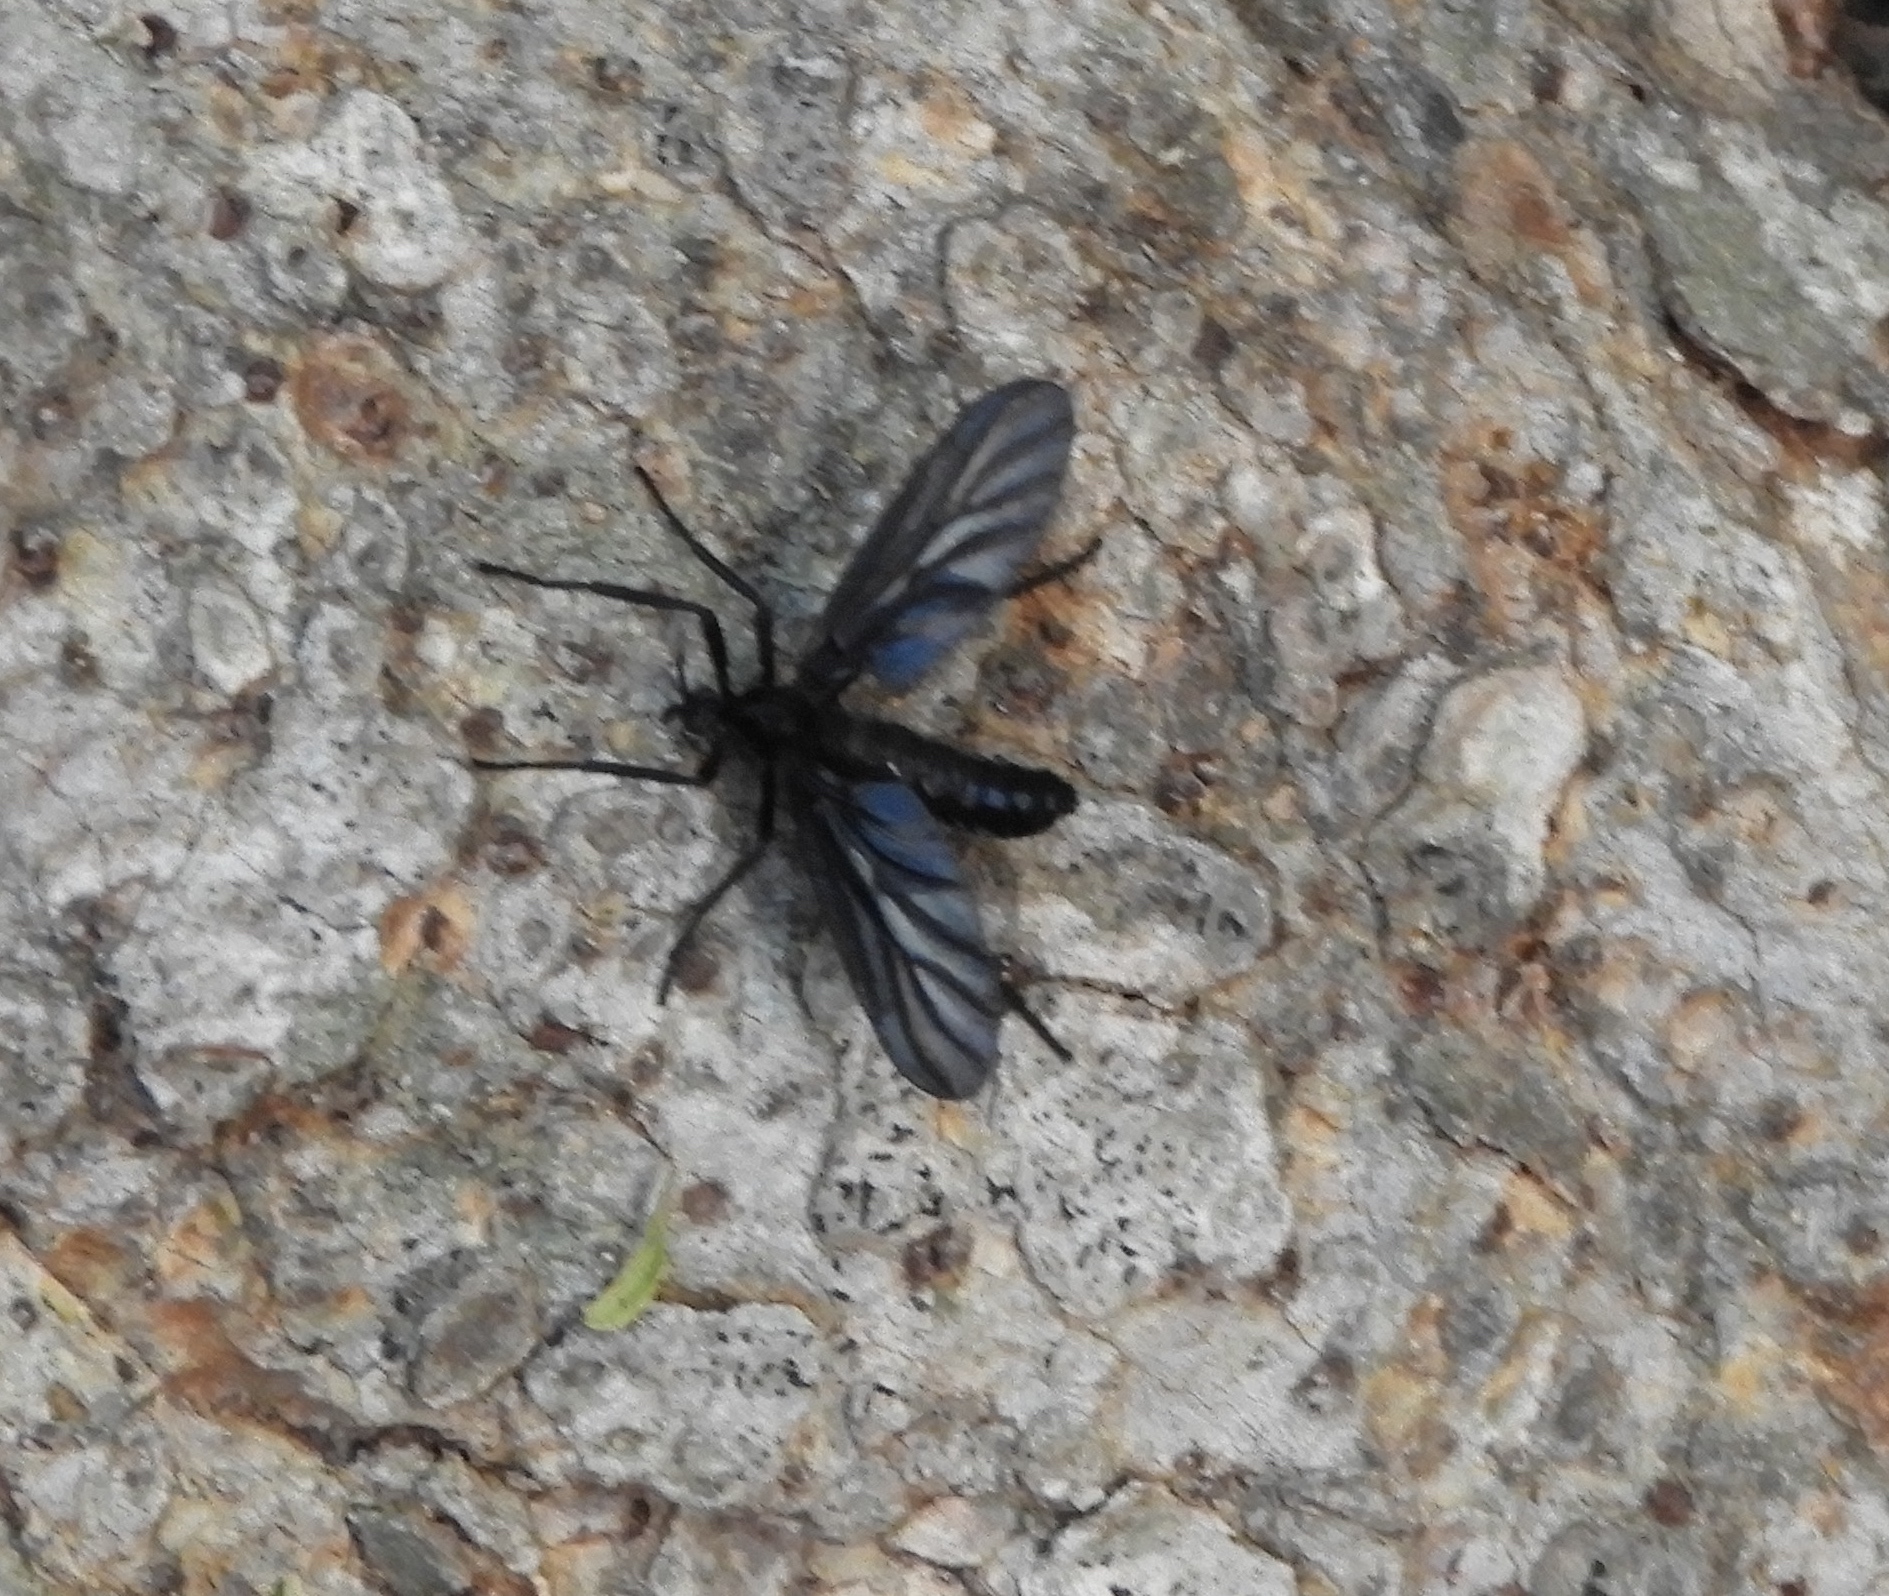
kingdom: Animalia
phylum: Arthropoda
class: Insecta
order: Diptera
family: Bibionidae
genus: Plecia
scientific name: Plecia plagiata
